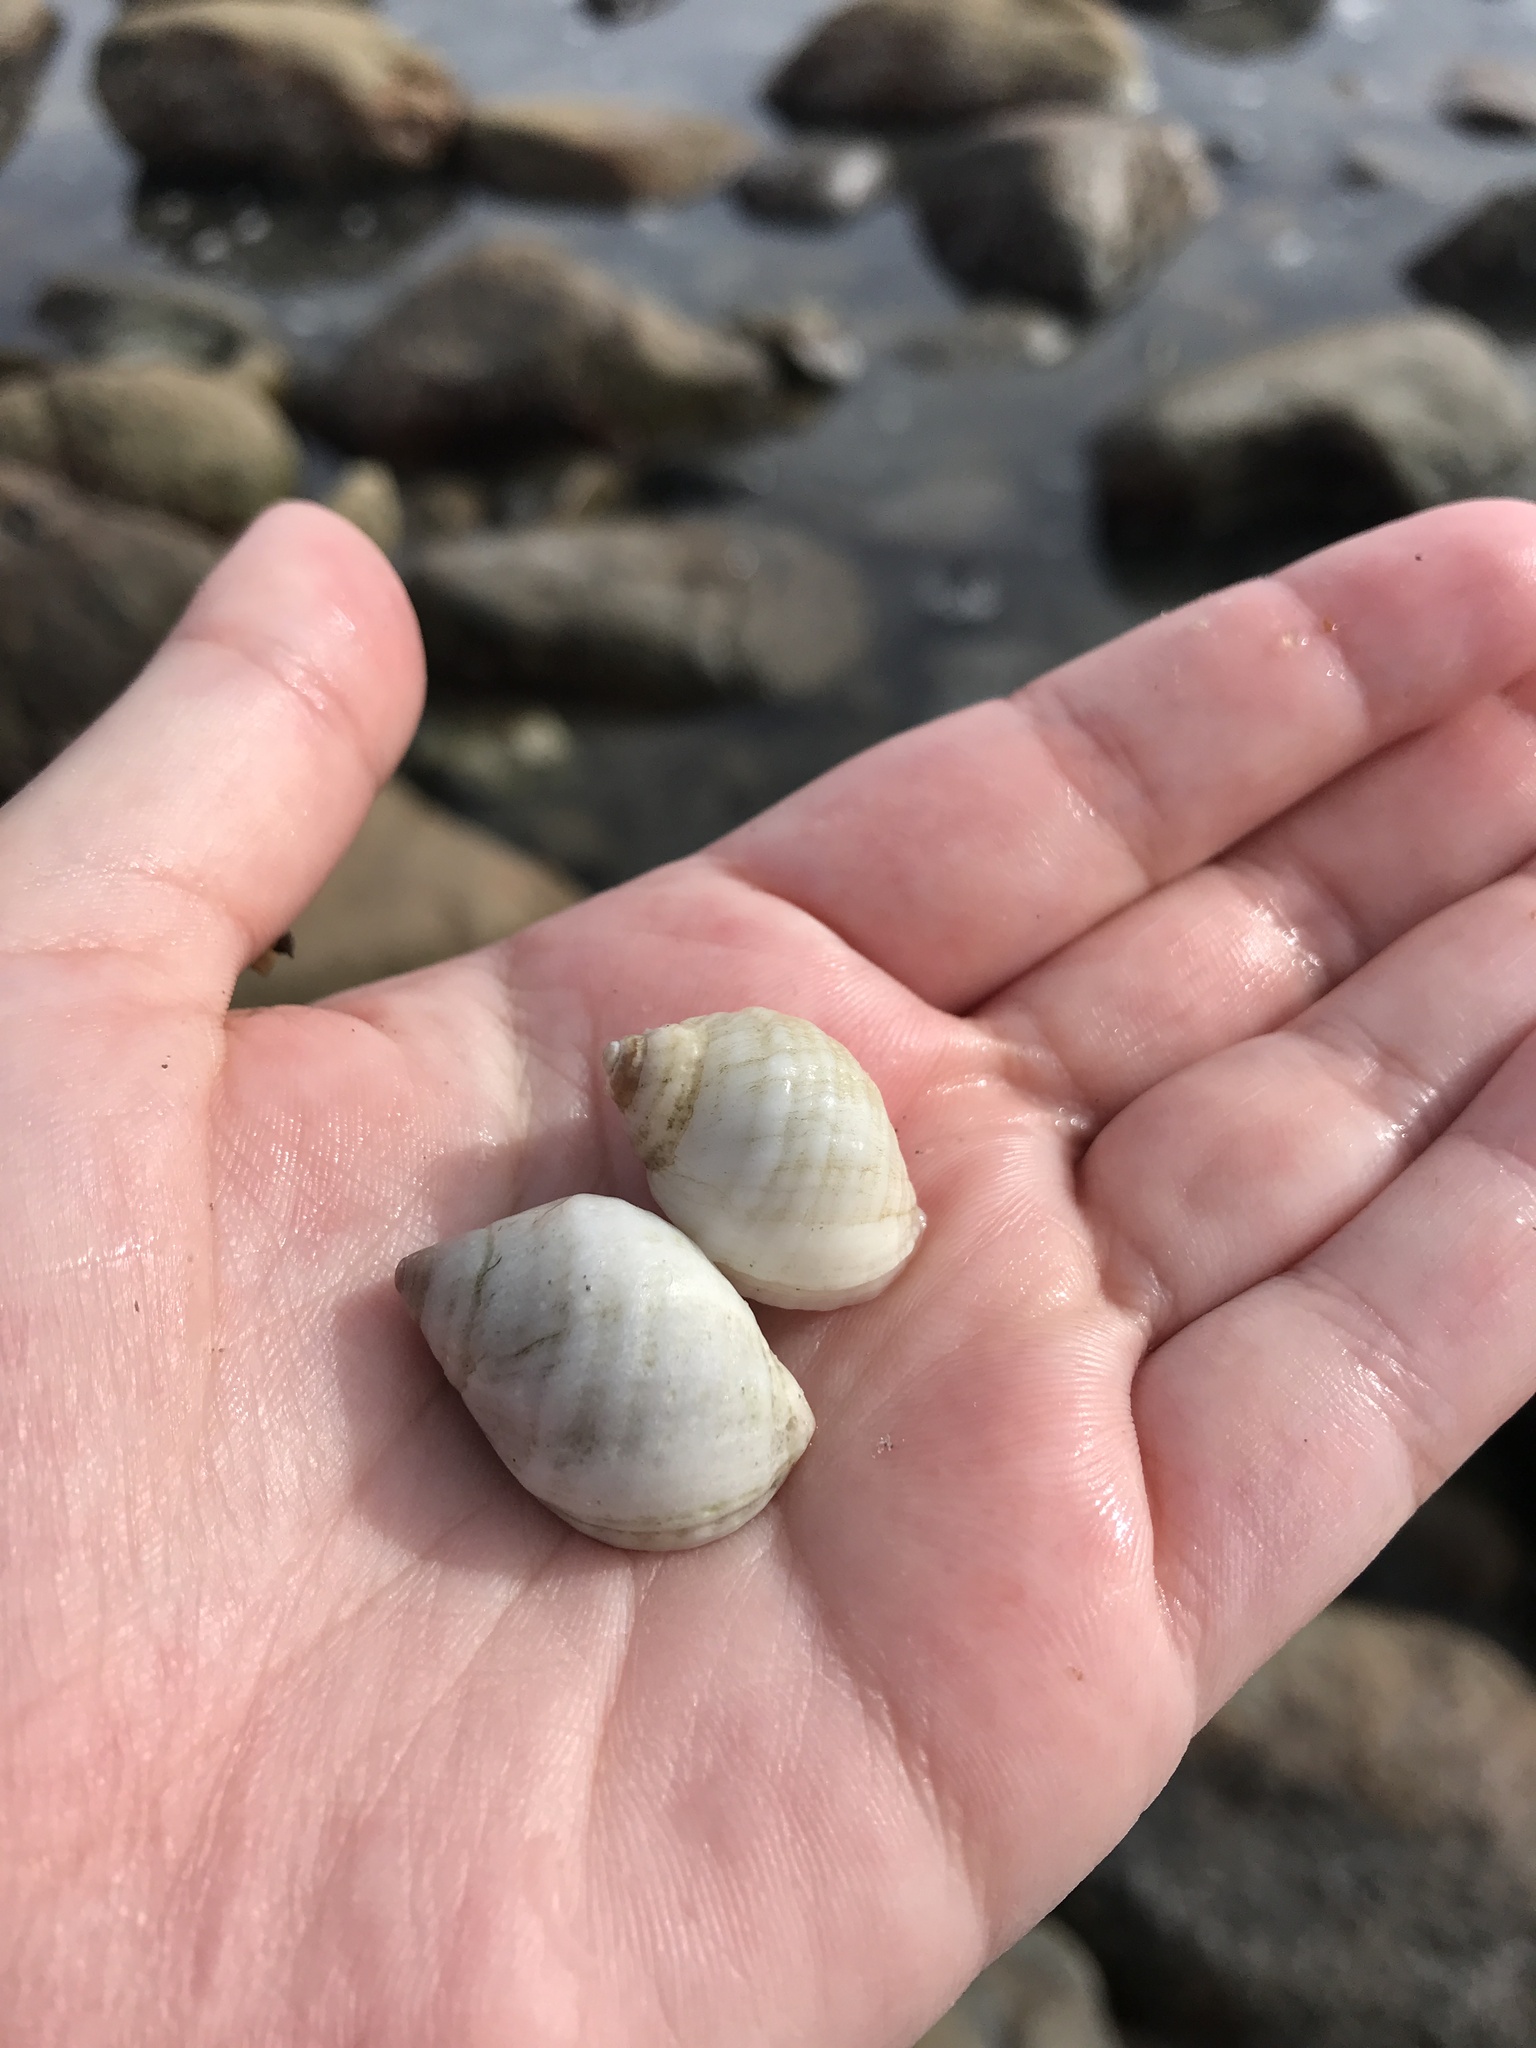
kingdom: Animalia
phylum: Mollusca
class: Gastropoda
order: Neogastropoda
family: Muricidae
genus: Nucella
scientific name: Nucella lapillus
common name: Dog whelk
